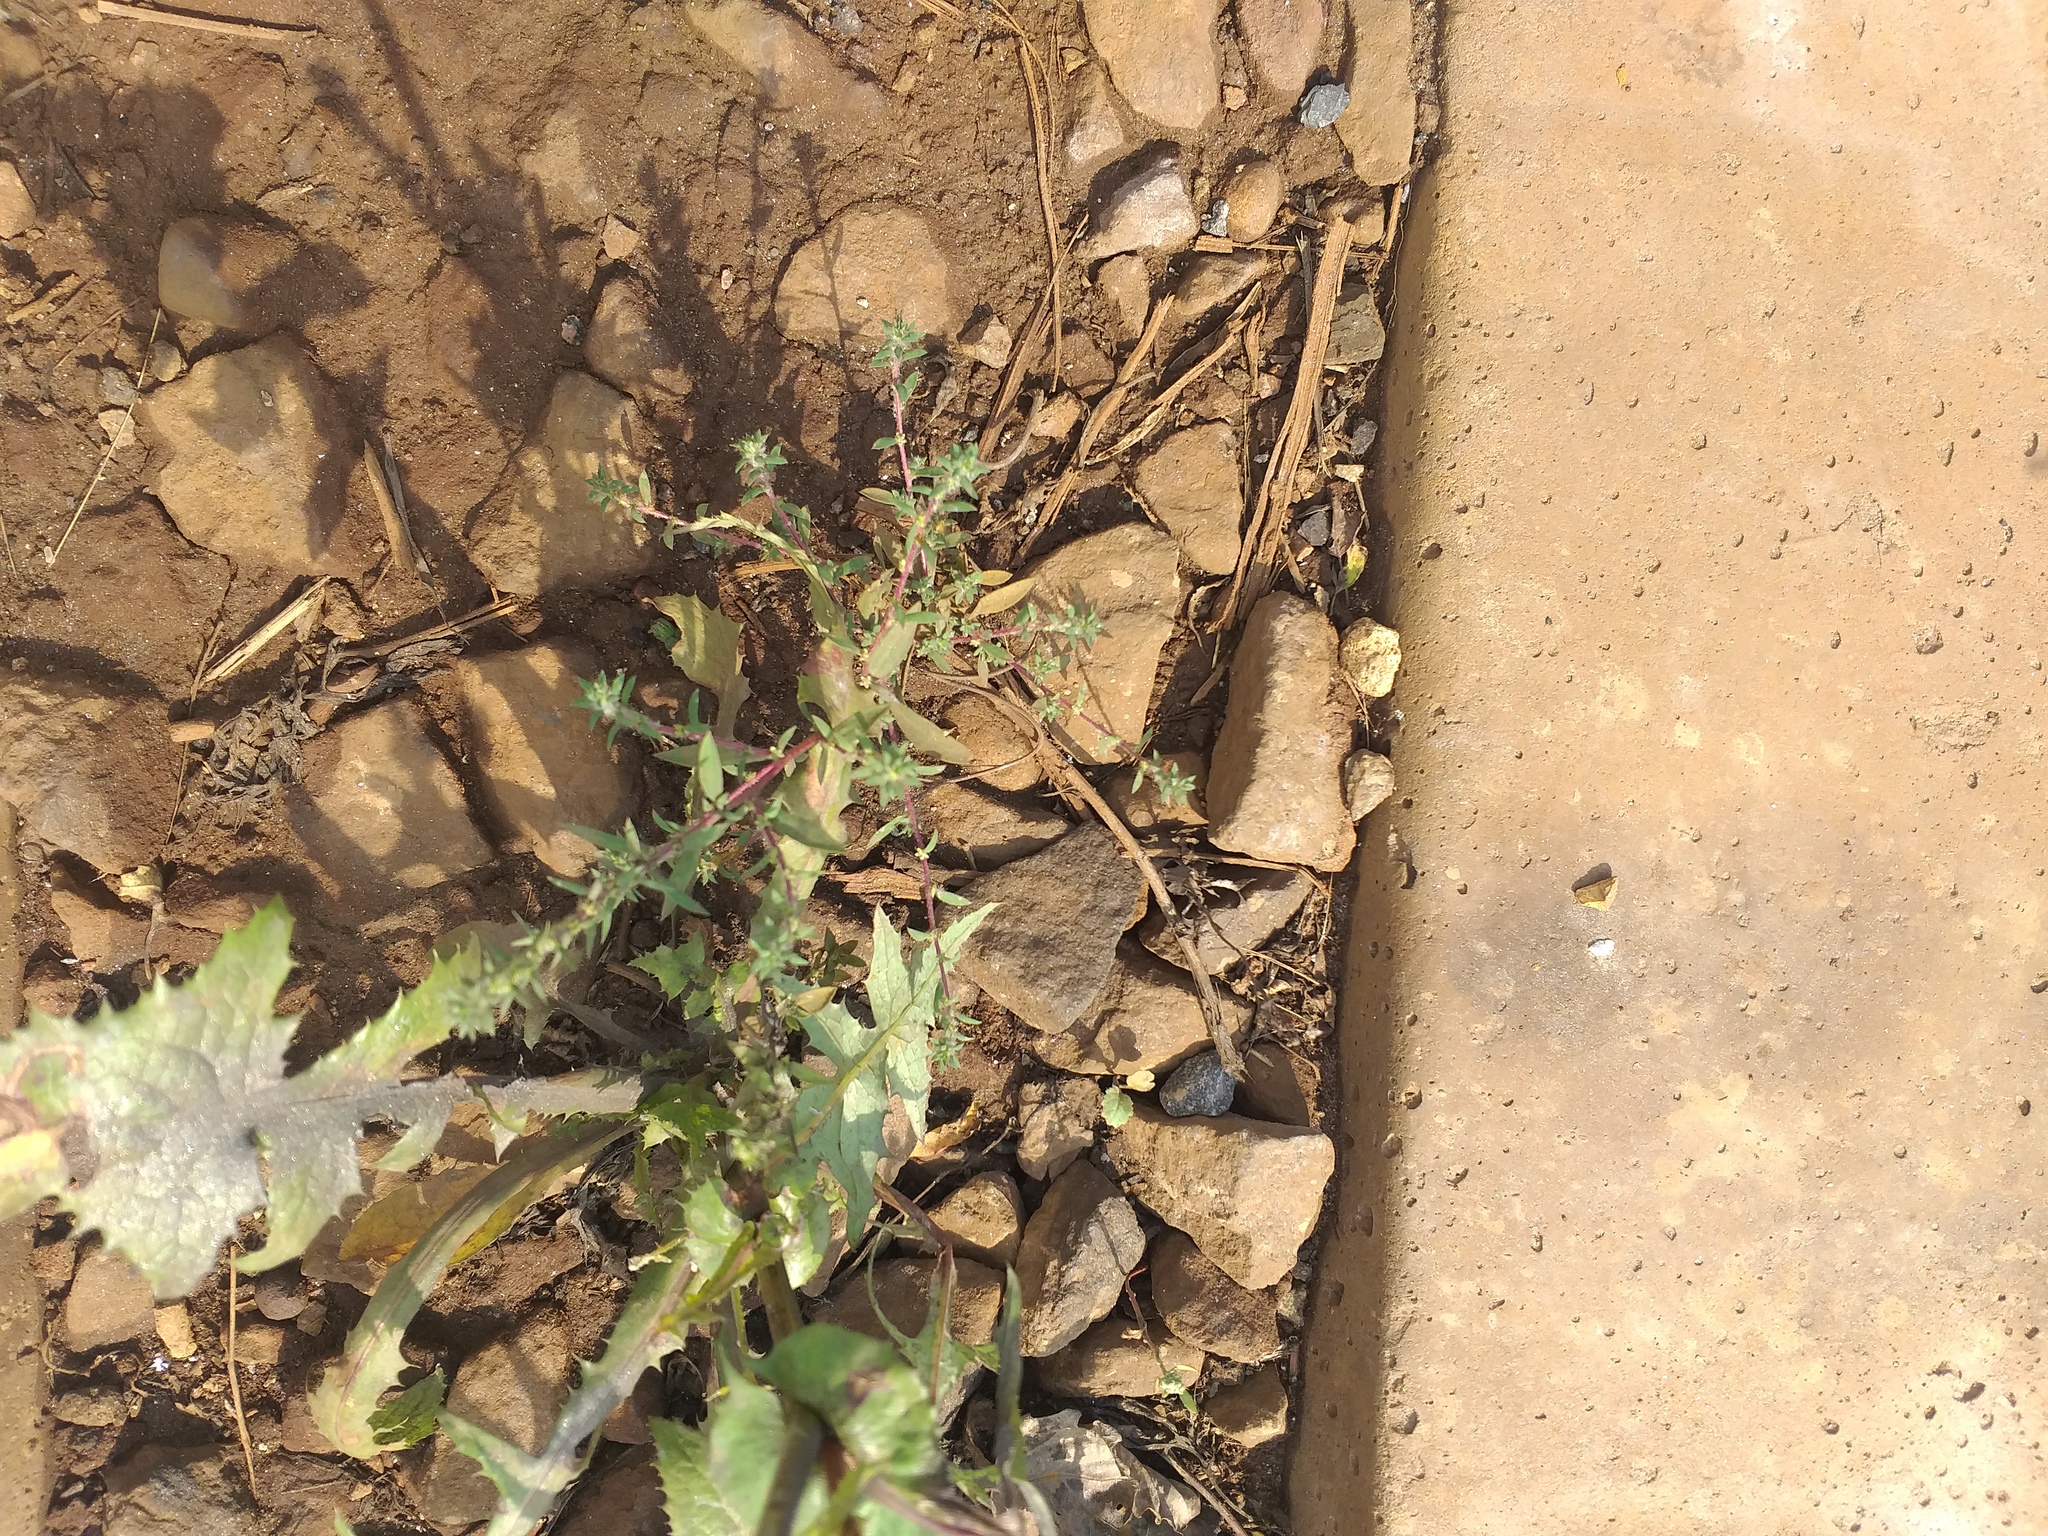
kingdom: Plantae
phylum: Tracheophyta
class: Magnoliopsida
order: Caryophyllales
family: Amaranthaceae
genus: Bassia
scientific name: Bassia scoparia
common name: Belvedere
